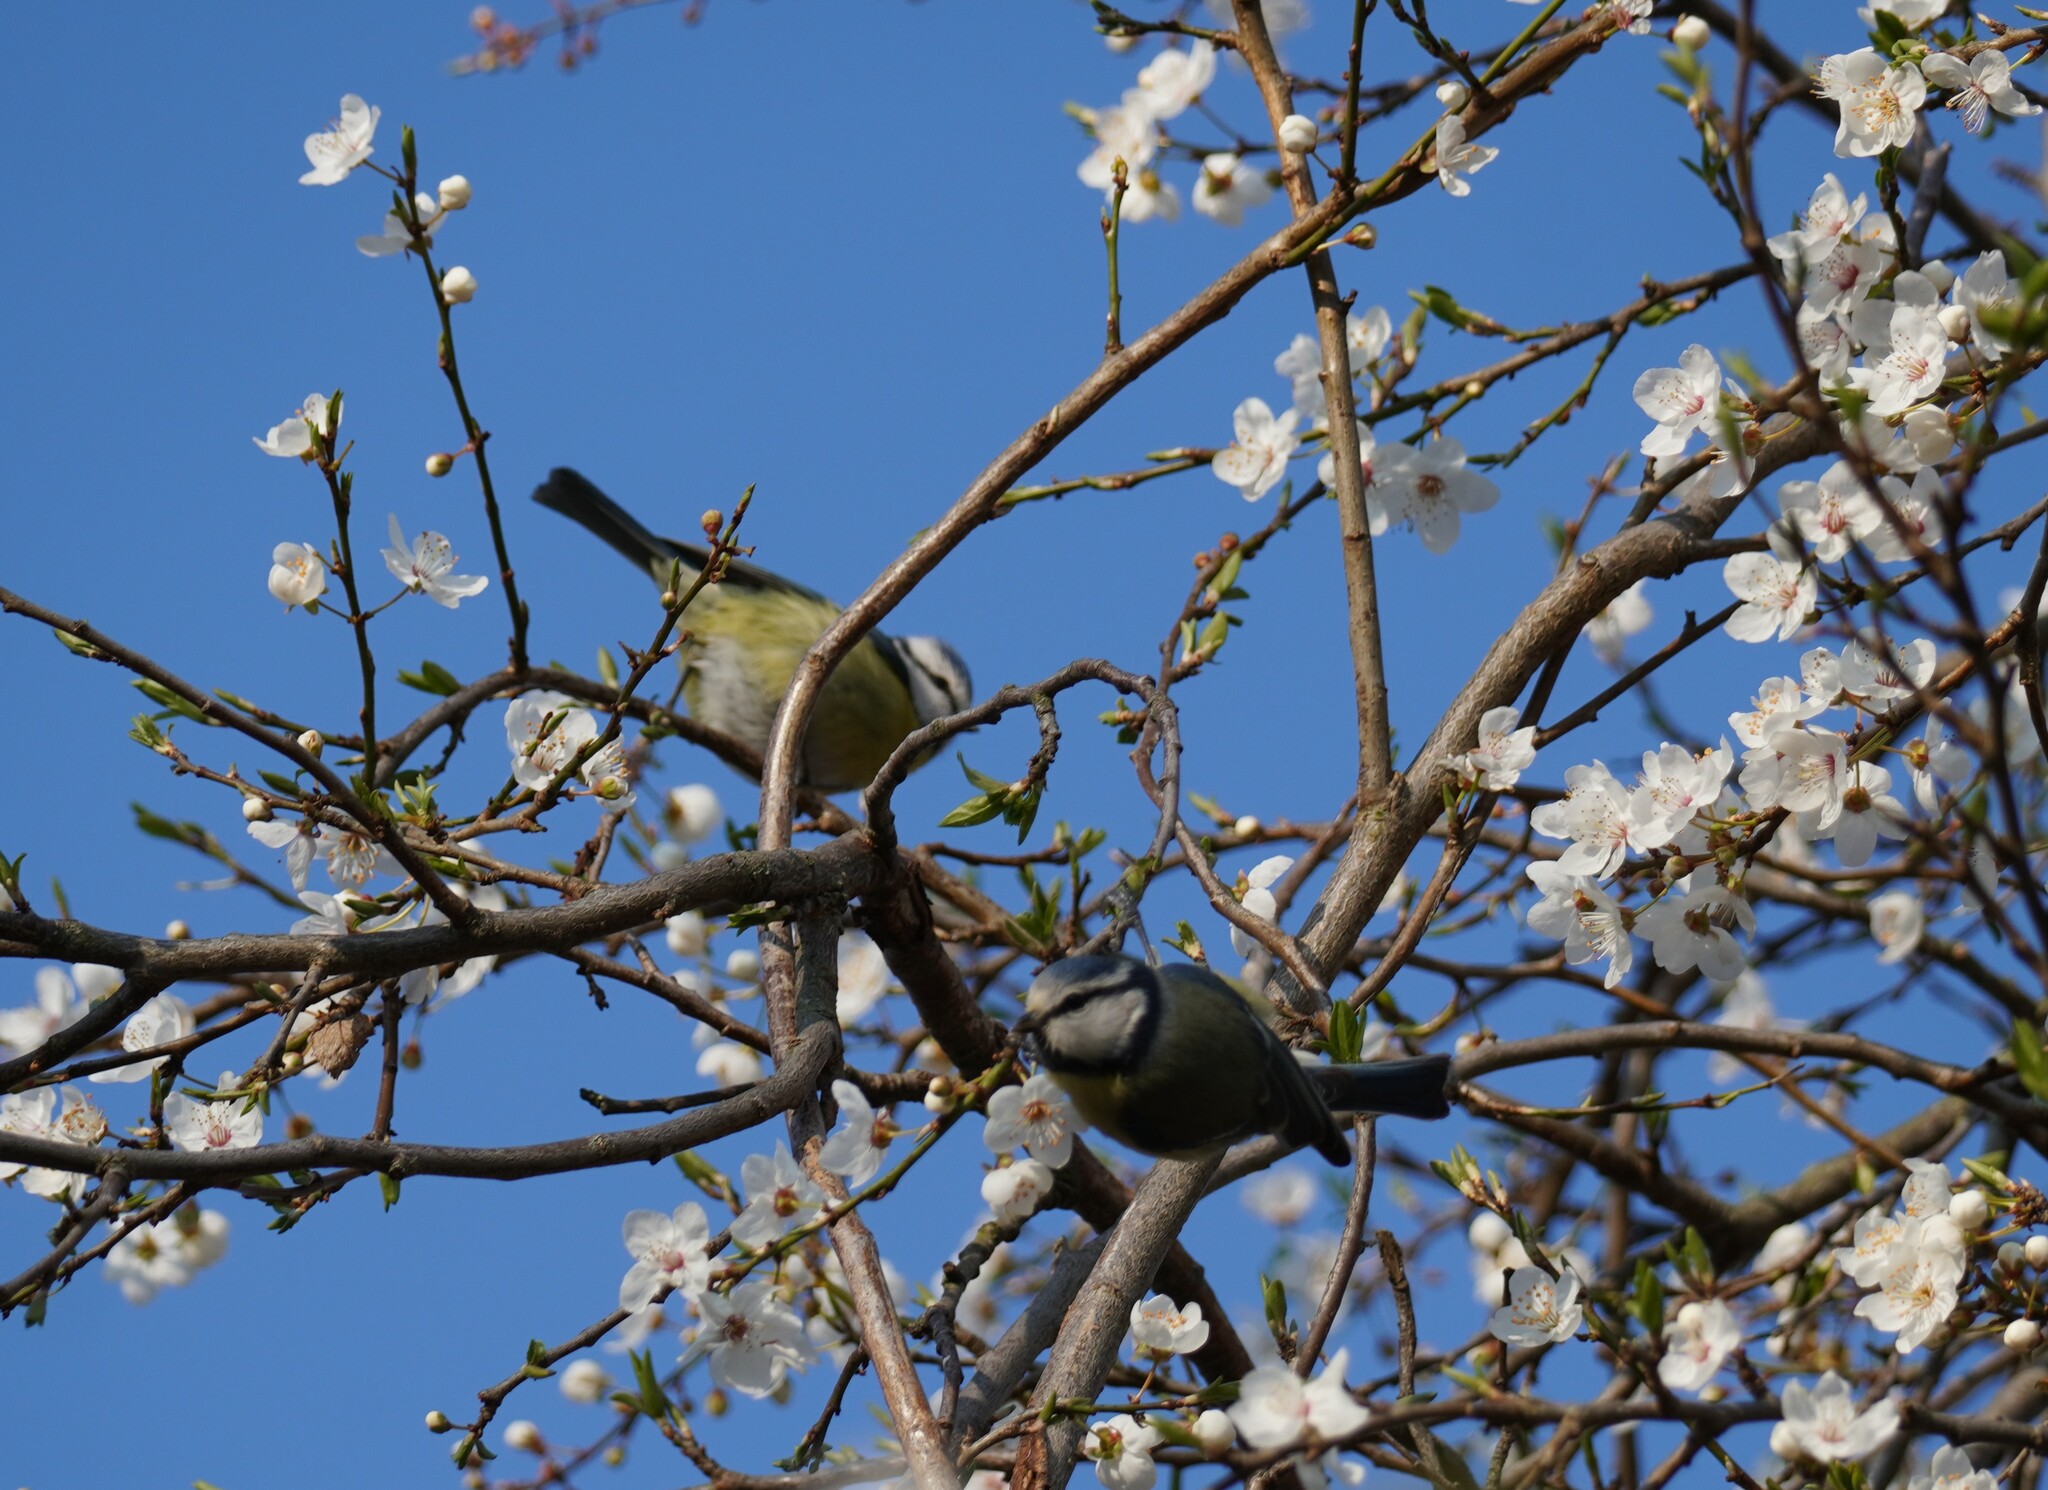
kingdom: Animalia
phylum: Chordata
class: Aves
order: Passeriformes
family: Paridae
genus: Cyanistes
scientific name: Cyanistes caeruleus
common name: Eurasian blue tit
